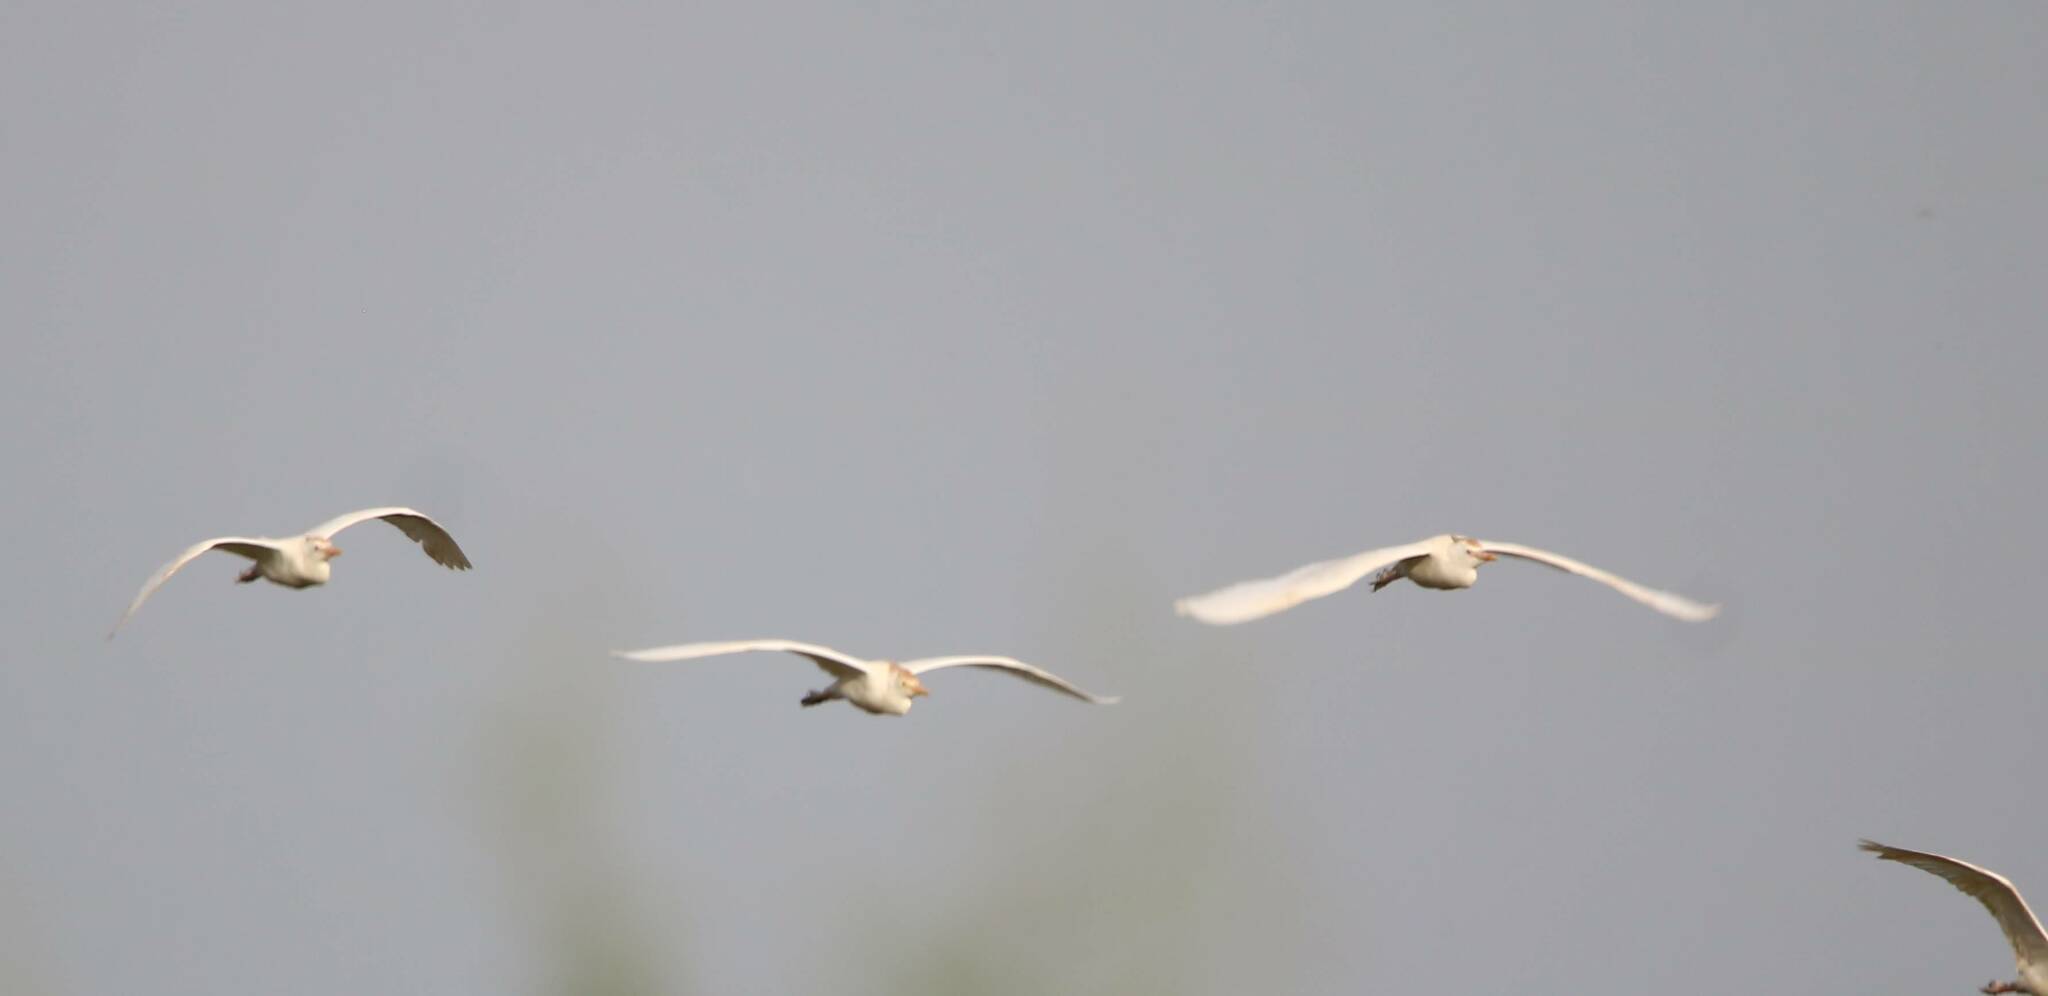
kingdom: Animalia
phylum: Chordata
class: Aves
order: Pelecaniformes
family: Ardeidae
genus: Bubulcus
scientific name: Bubulcus ibis
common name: Cattle egret
